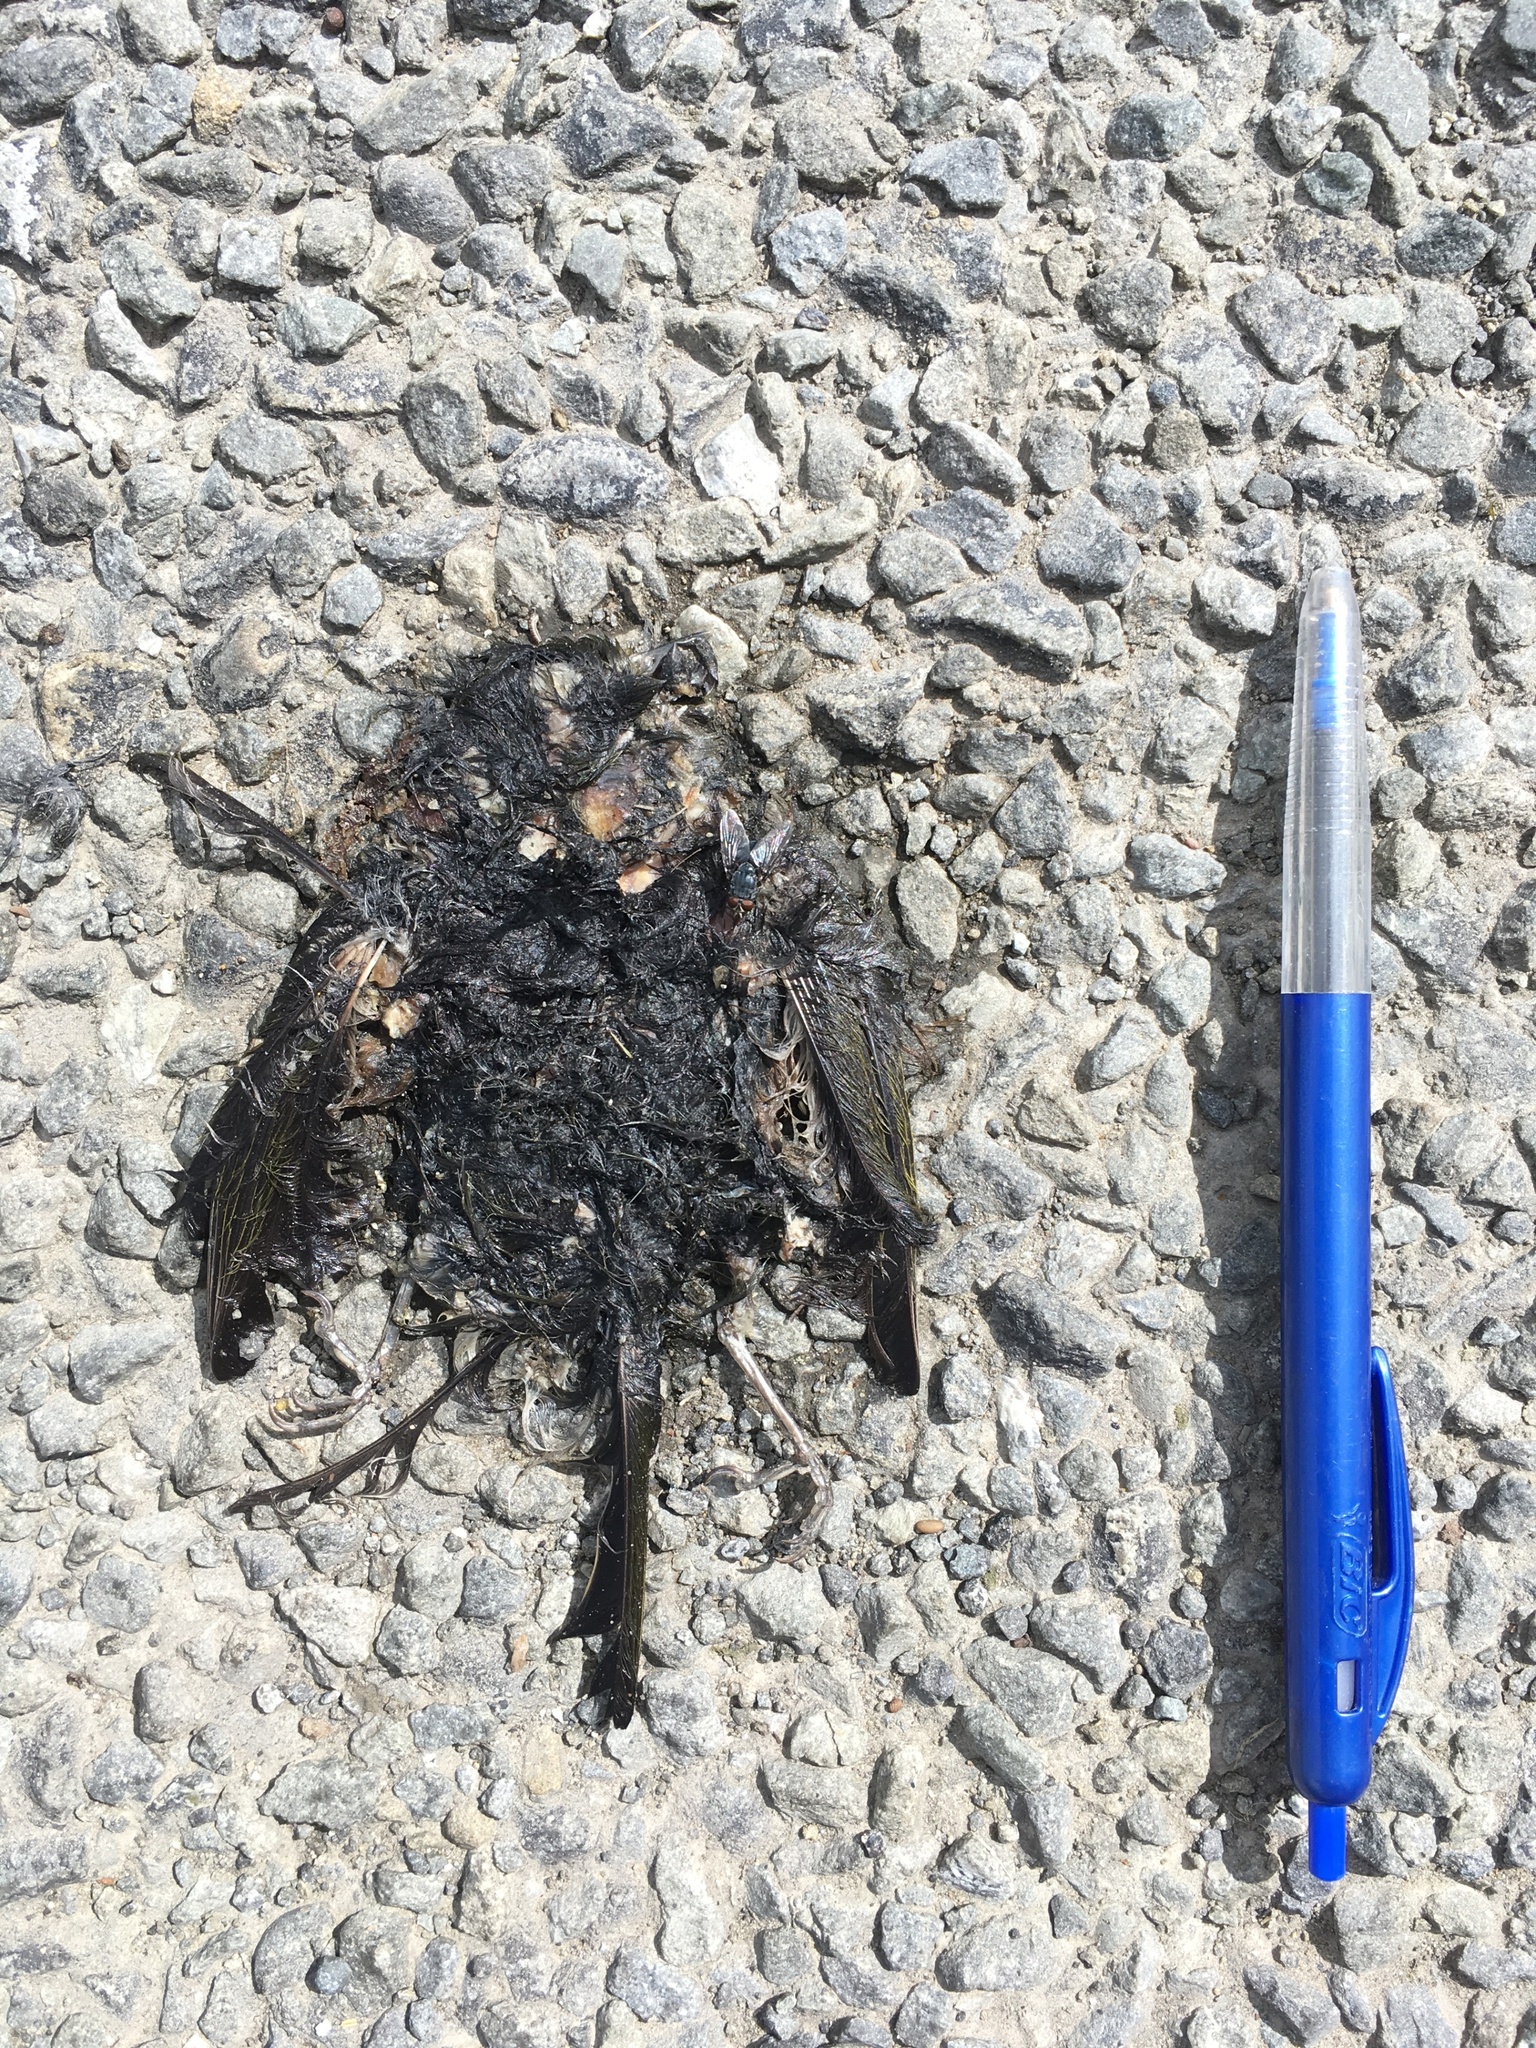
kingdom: Animalia
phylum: Chordata
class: Aves
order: Passeriformes
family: Zosteropidae
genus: Zosterops
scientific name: Zosterops lateralis
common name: Silvereye
